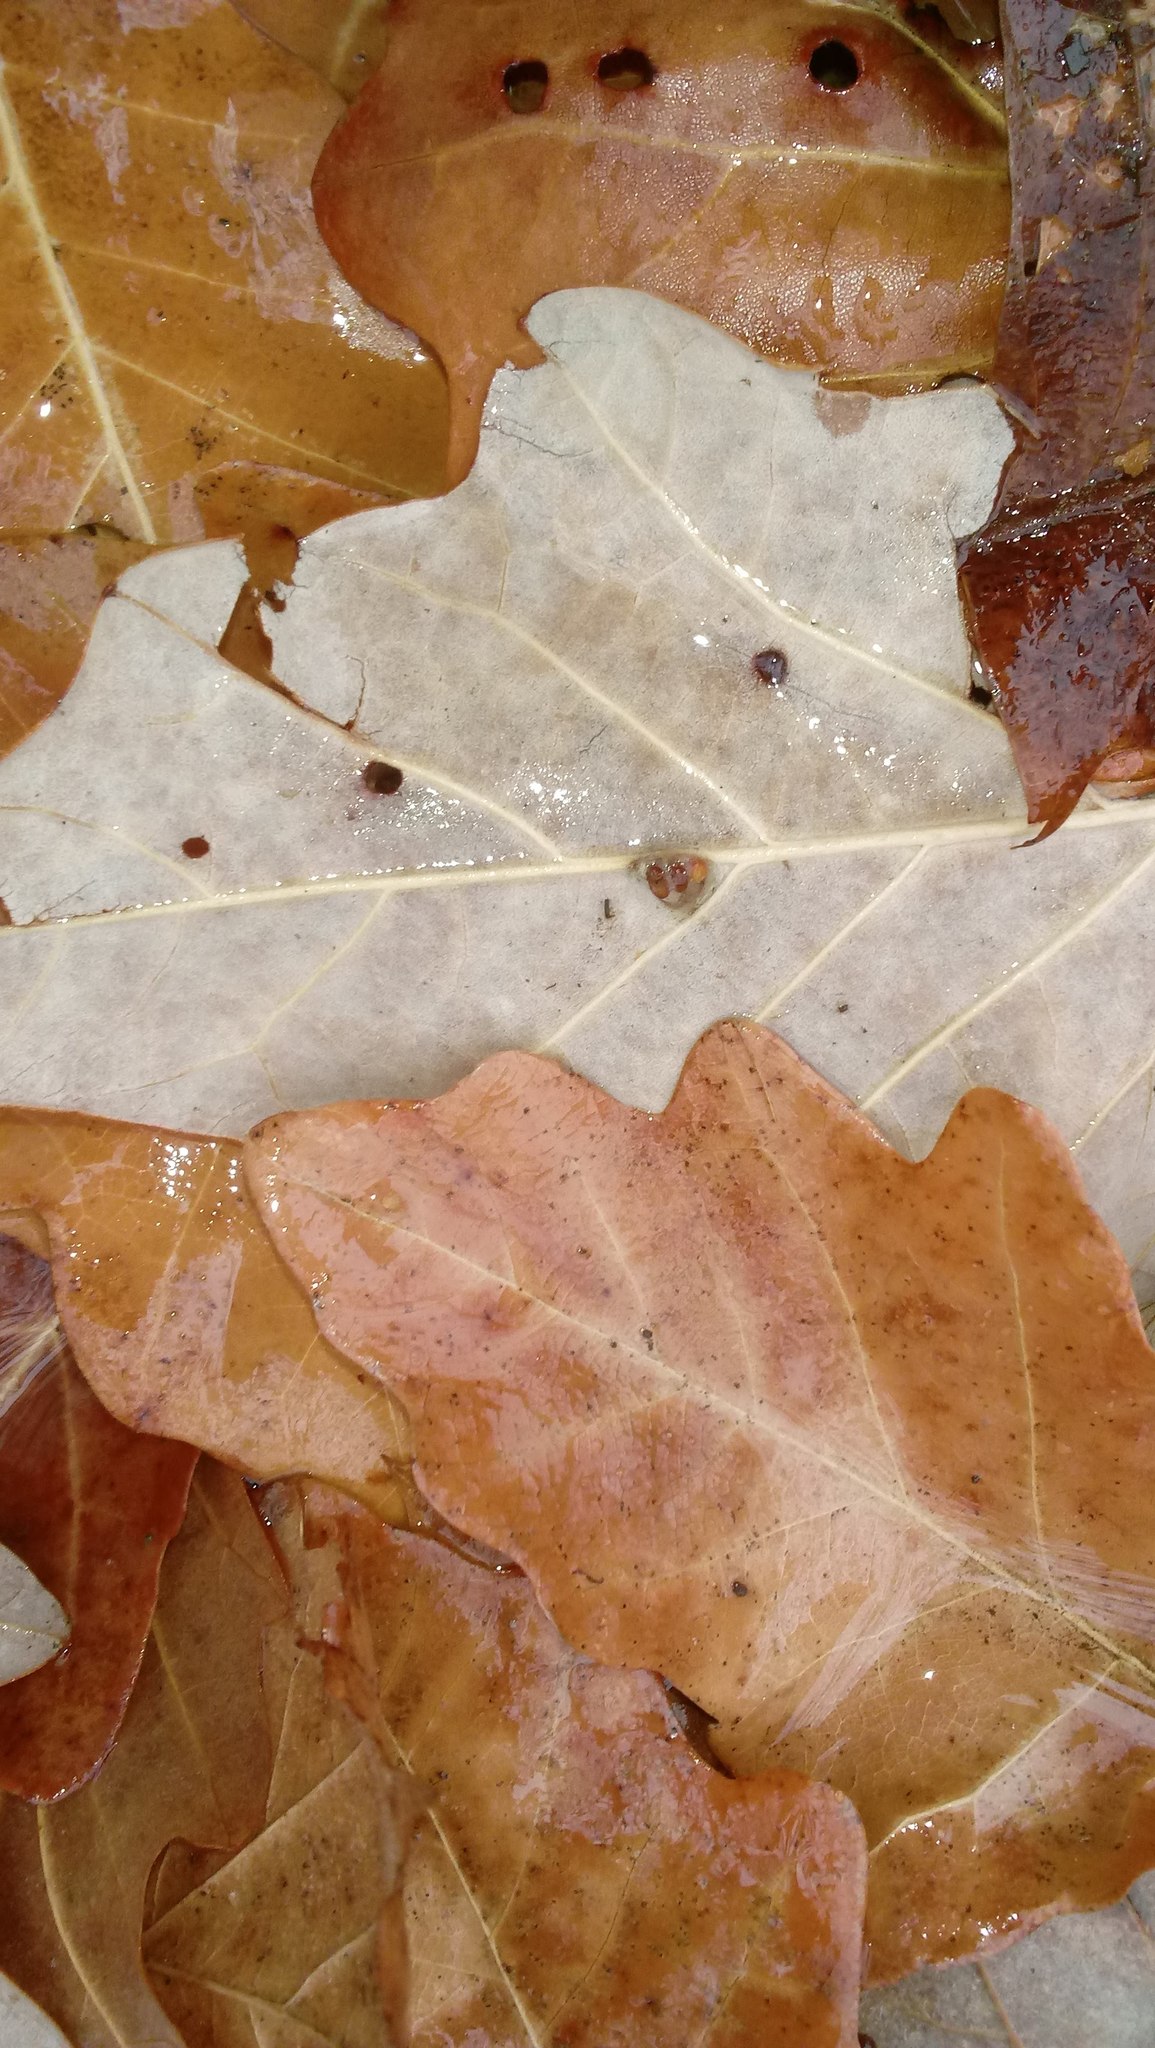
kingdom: Animalia
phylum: Arthropoda
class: Insecta
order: Hymenoptera
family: Cynipidae
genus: Andricus
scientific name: Andricus Druon ignotum
